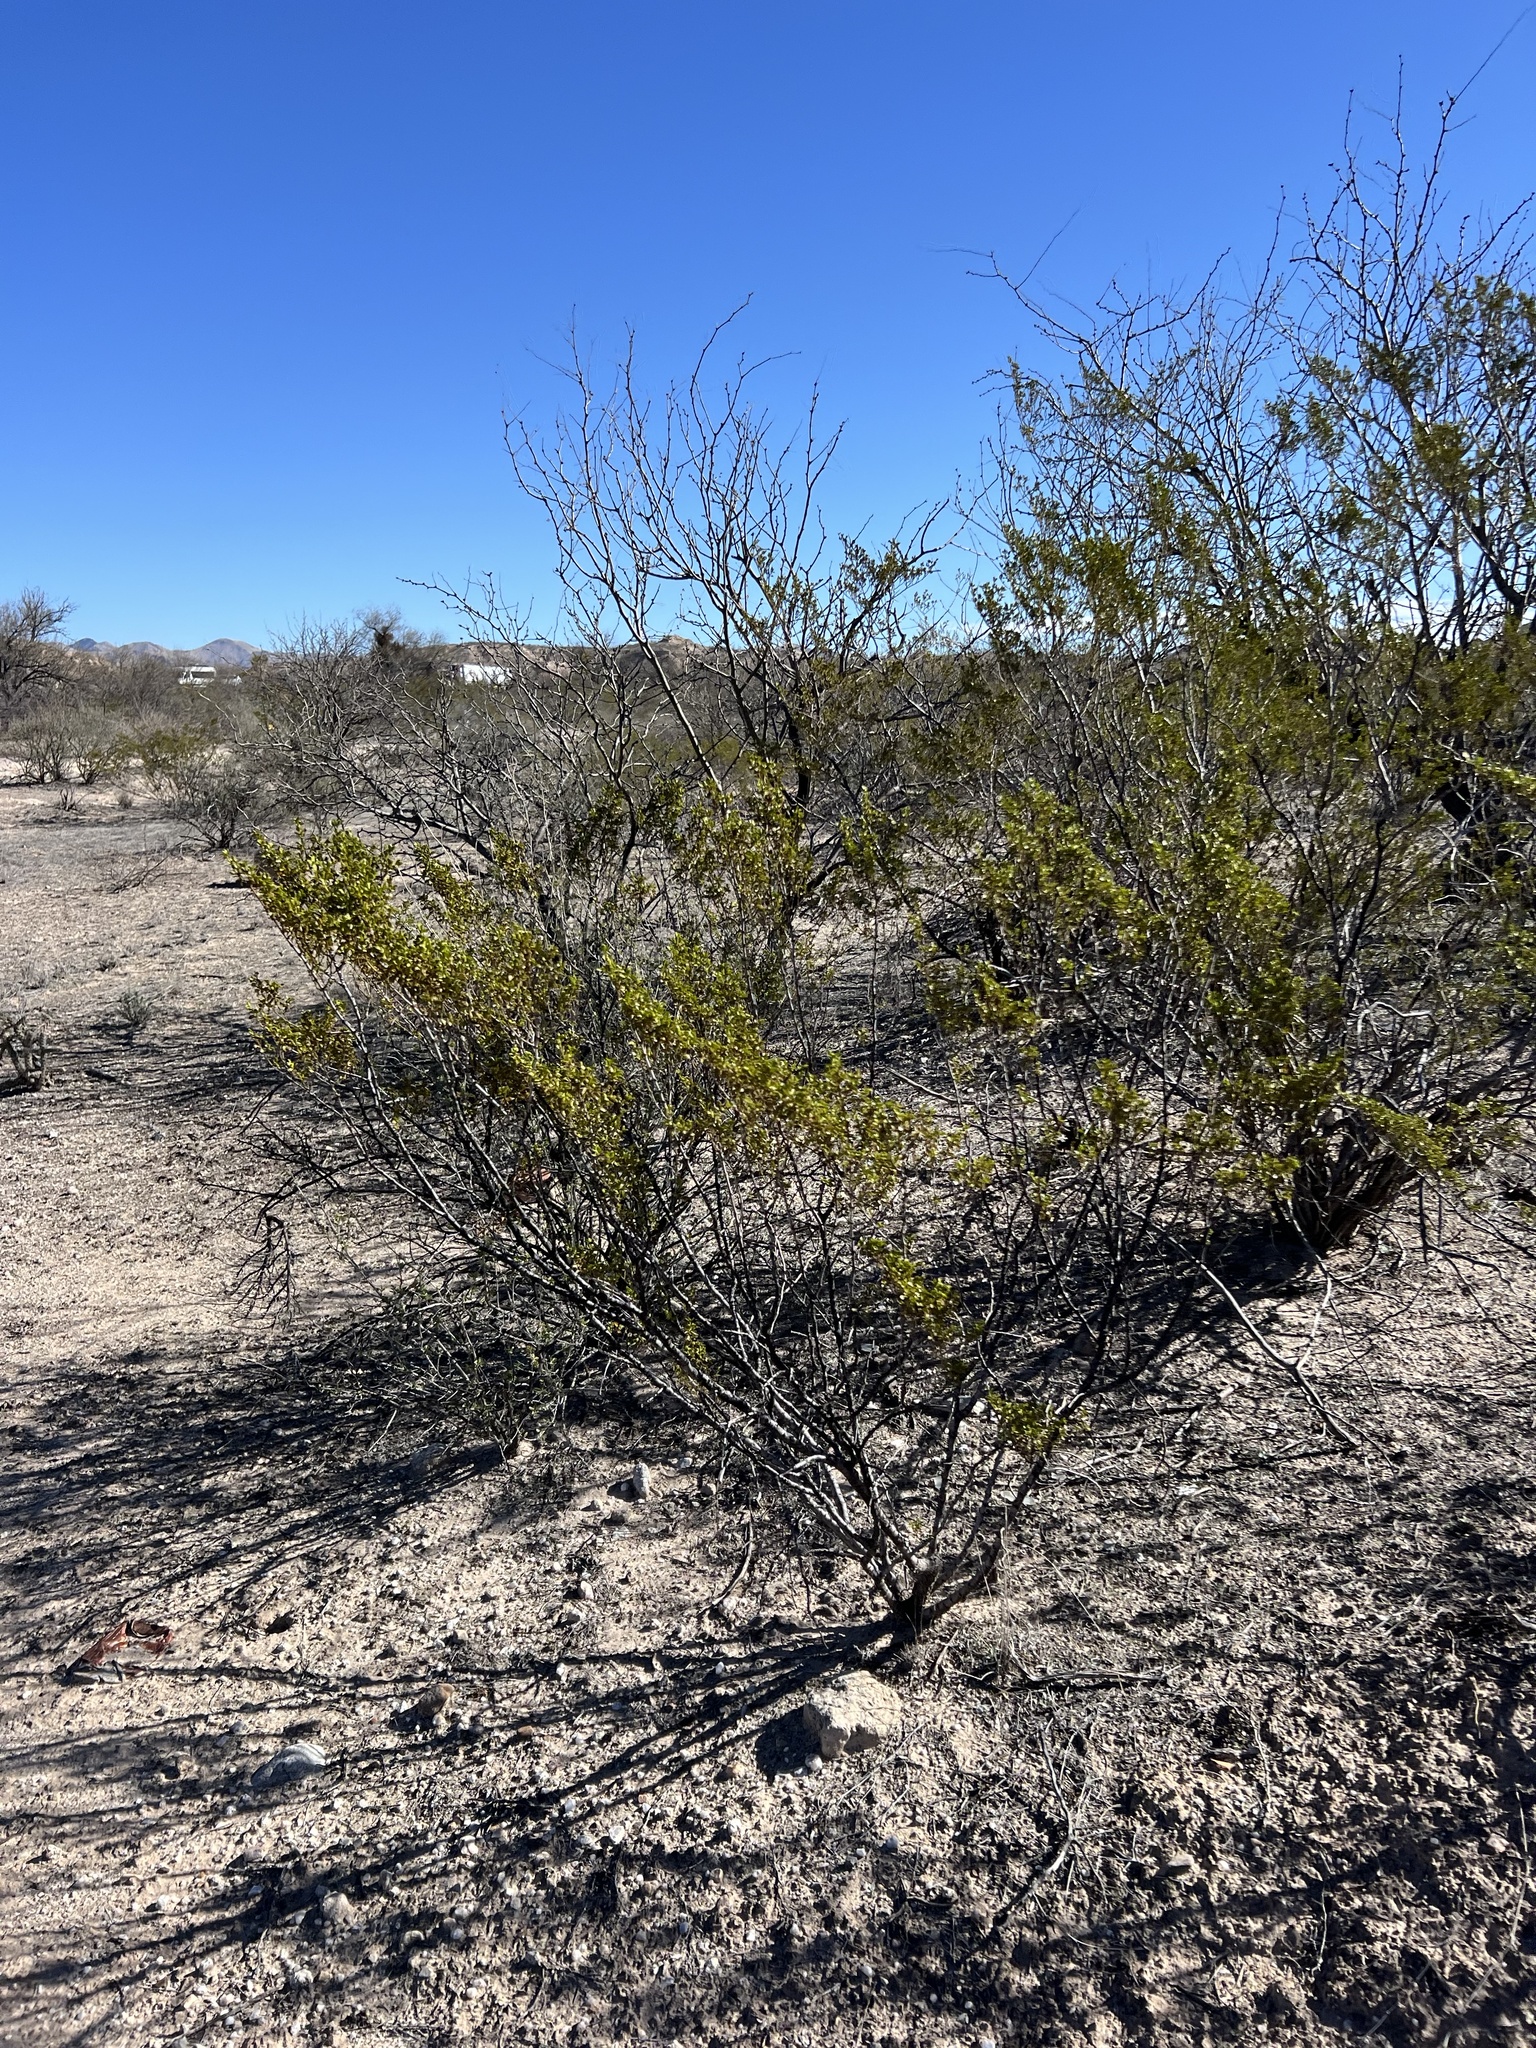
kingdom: Plantae
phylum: Tracheophyta
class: Magnoliopsida
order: Zygophyllales
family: Zygophyllaceae
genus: Larrea
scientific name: Larrea tridentata
